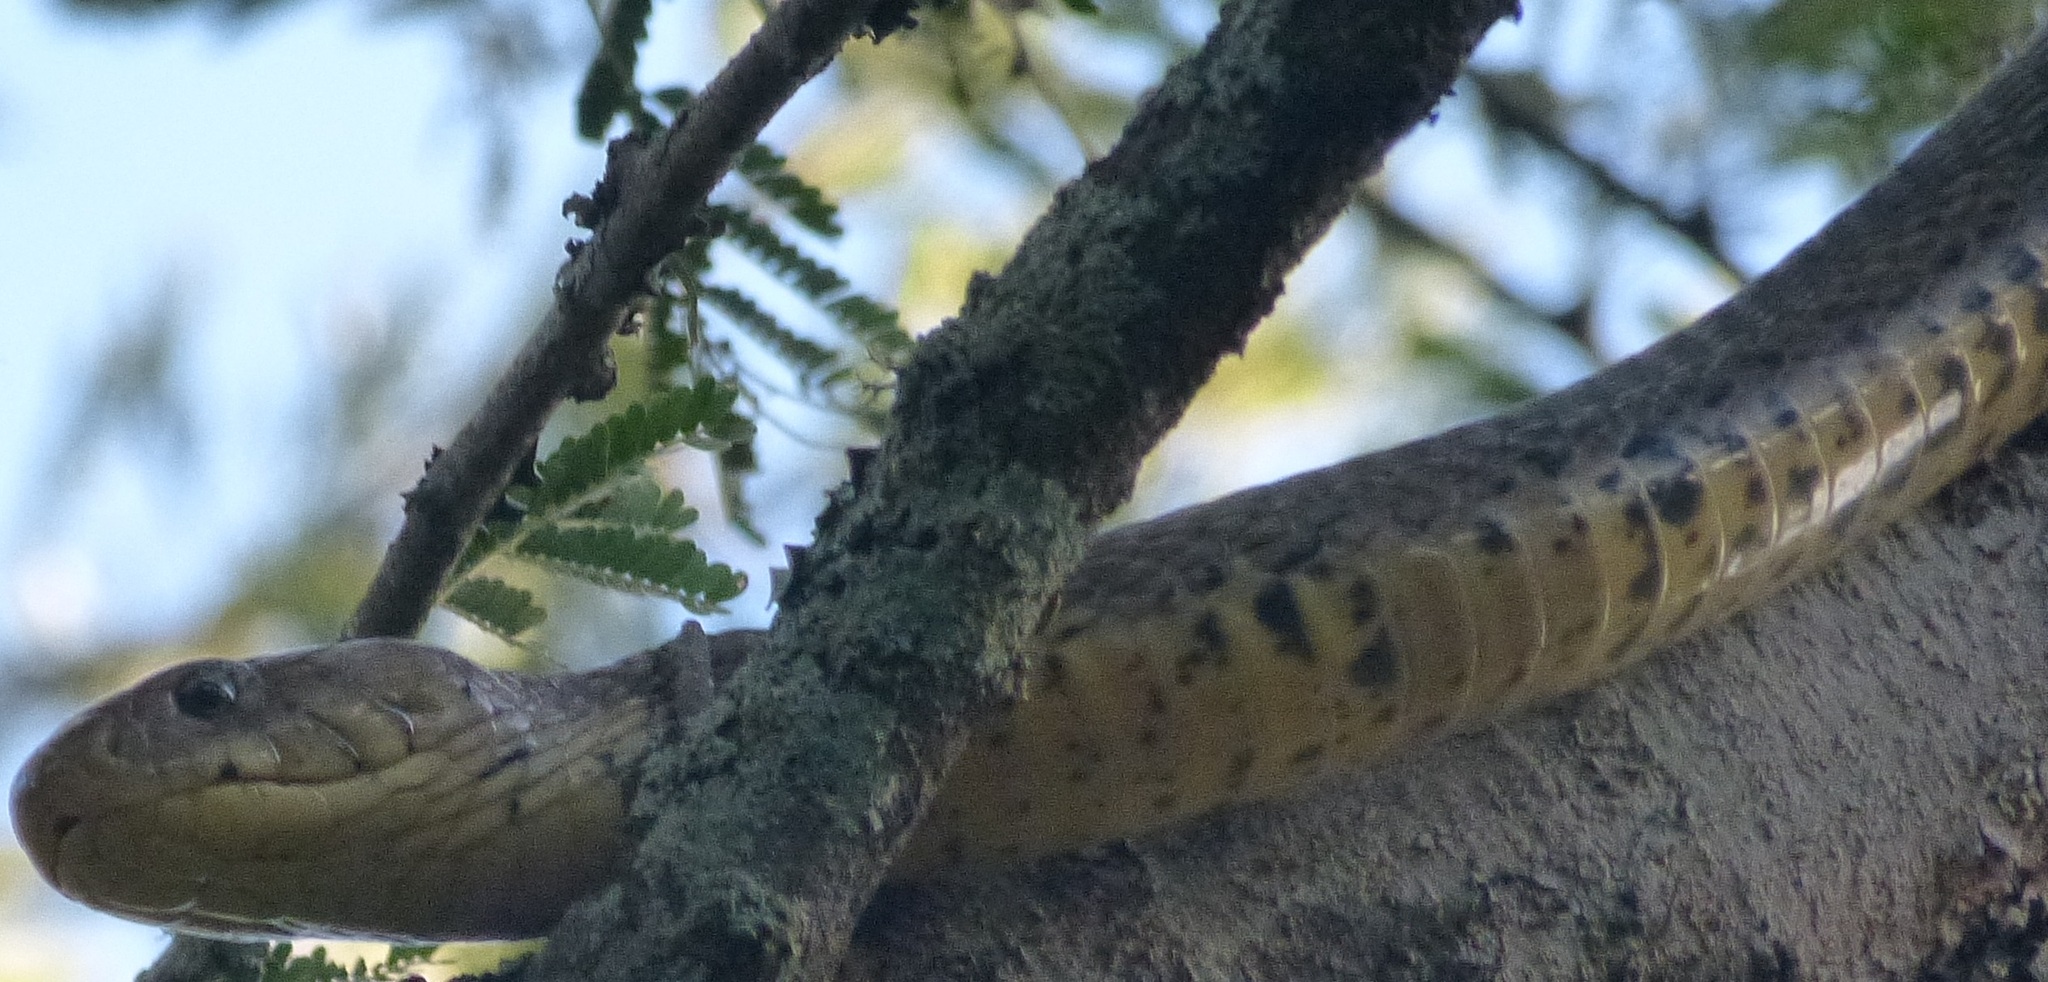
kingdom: Animalia
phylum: Chordata
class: Squamata
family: Elapidae
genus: Naja
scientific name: Naja subfulva
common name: Brown forest cobra
